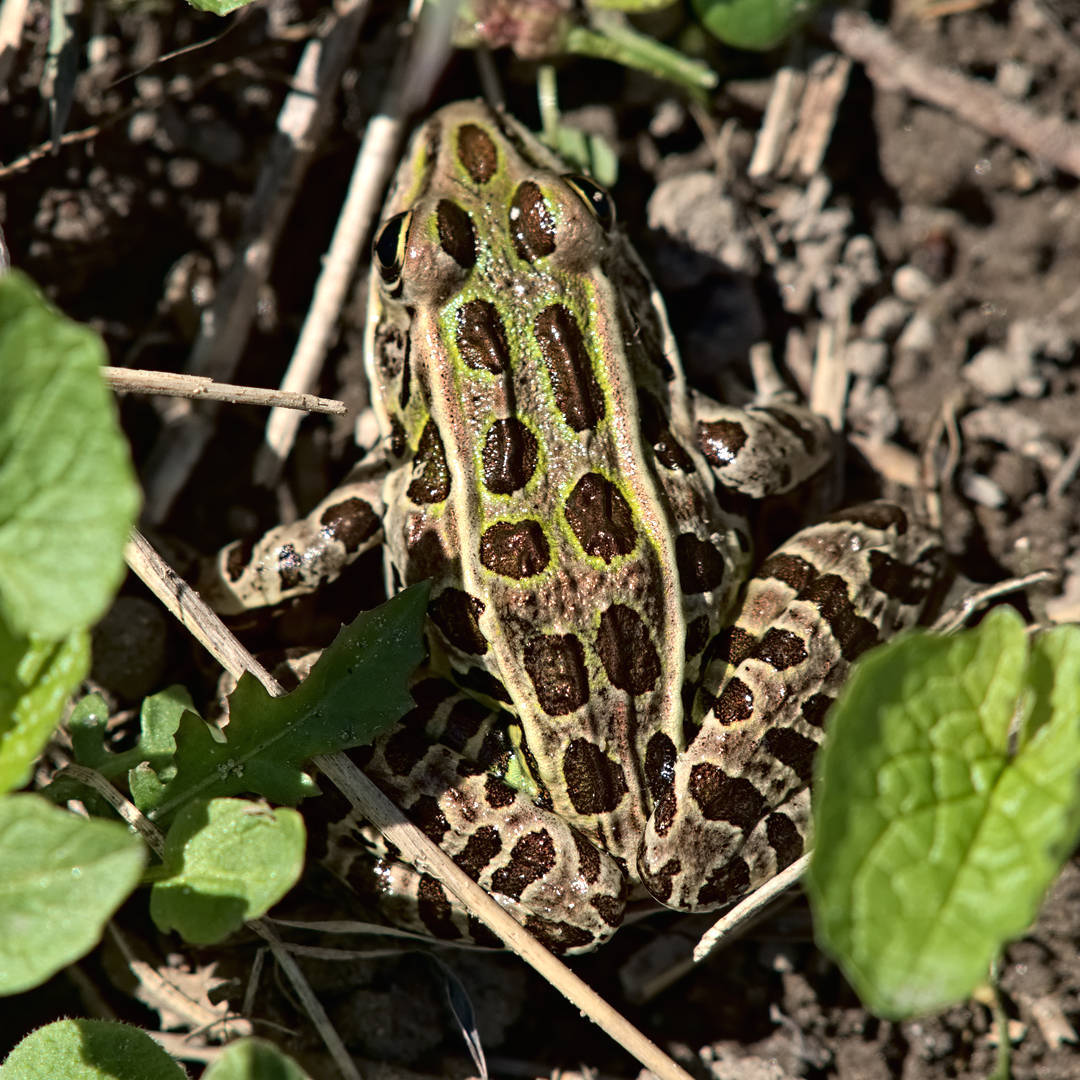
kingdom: Animalia
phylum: Chordata
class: Amphibia
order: Anura
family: Ranidae
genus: Lithobates
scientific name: Lithobates pipiens
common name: Northern leopard frog
